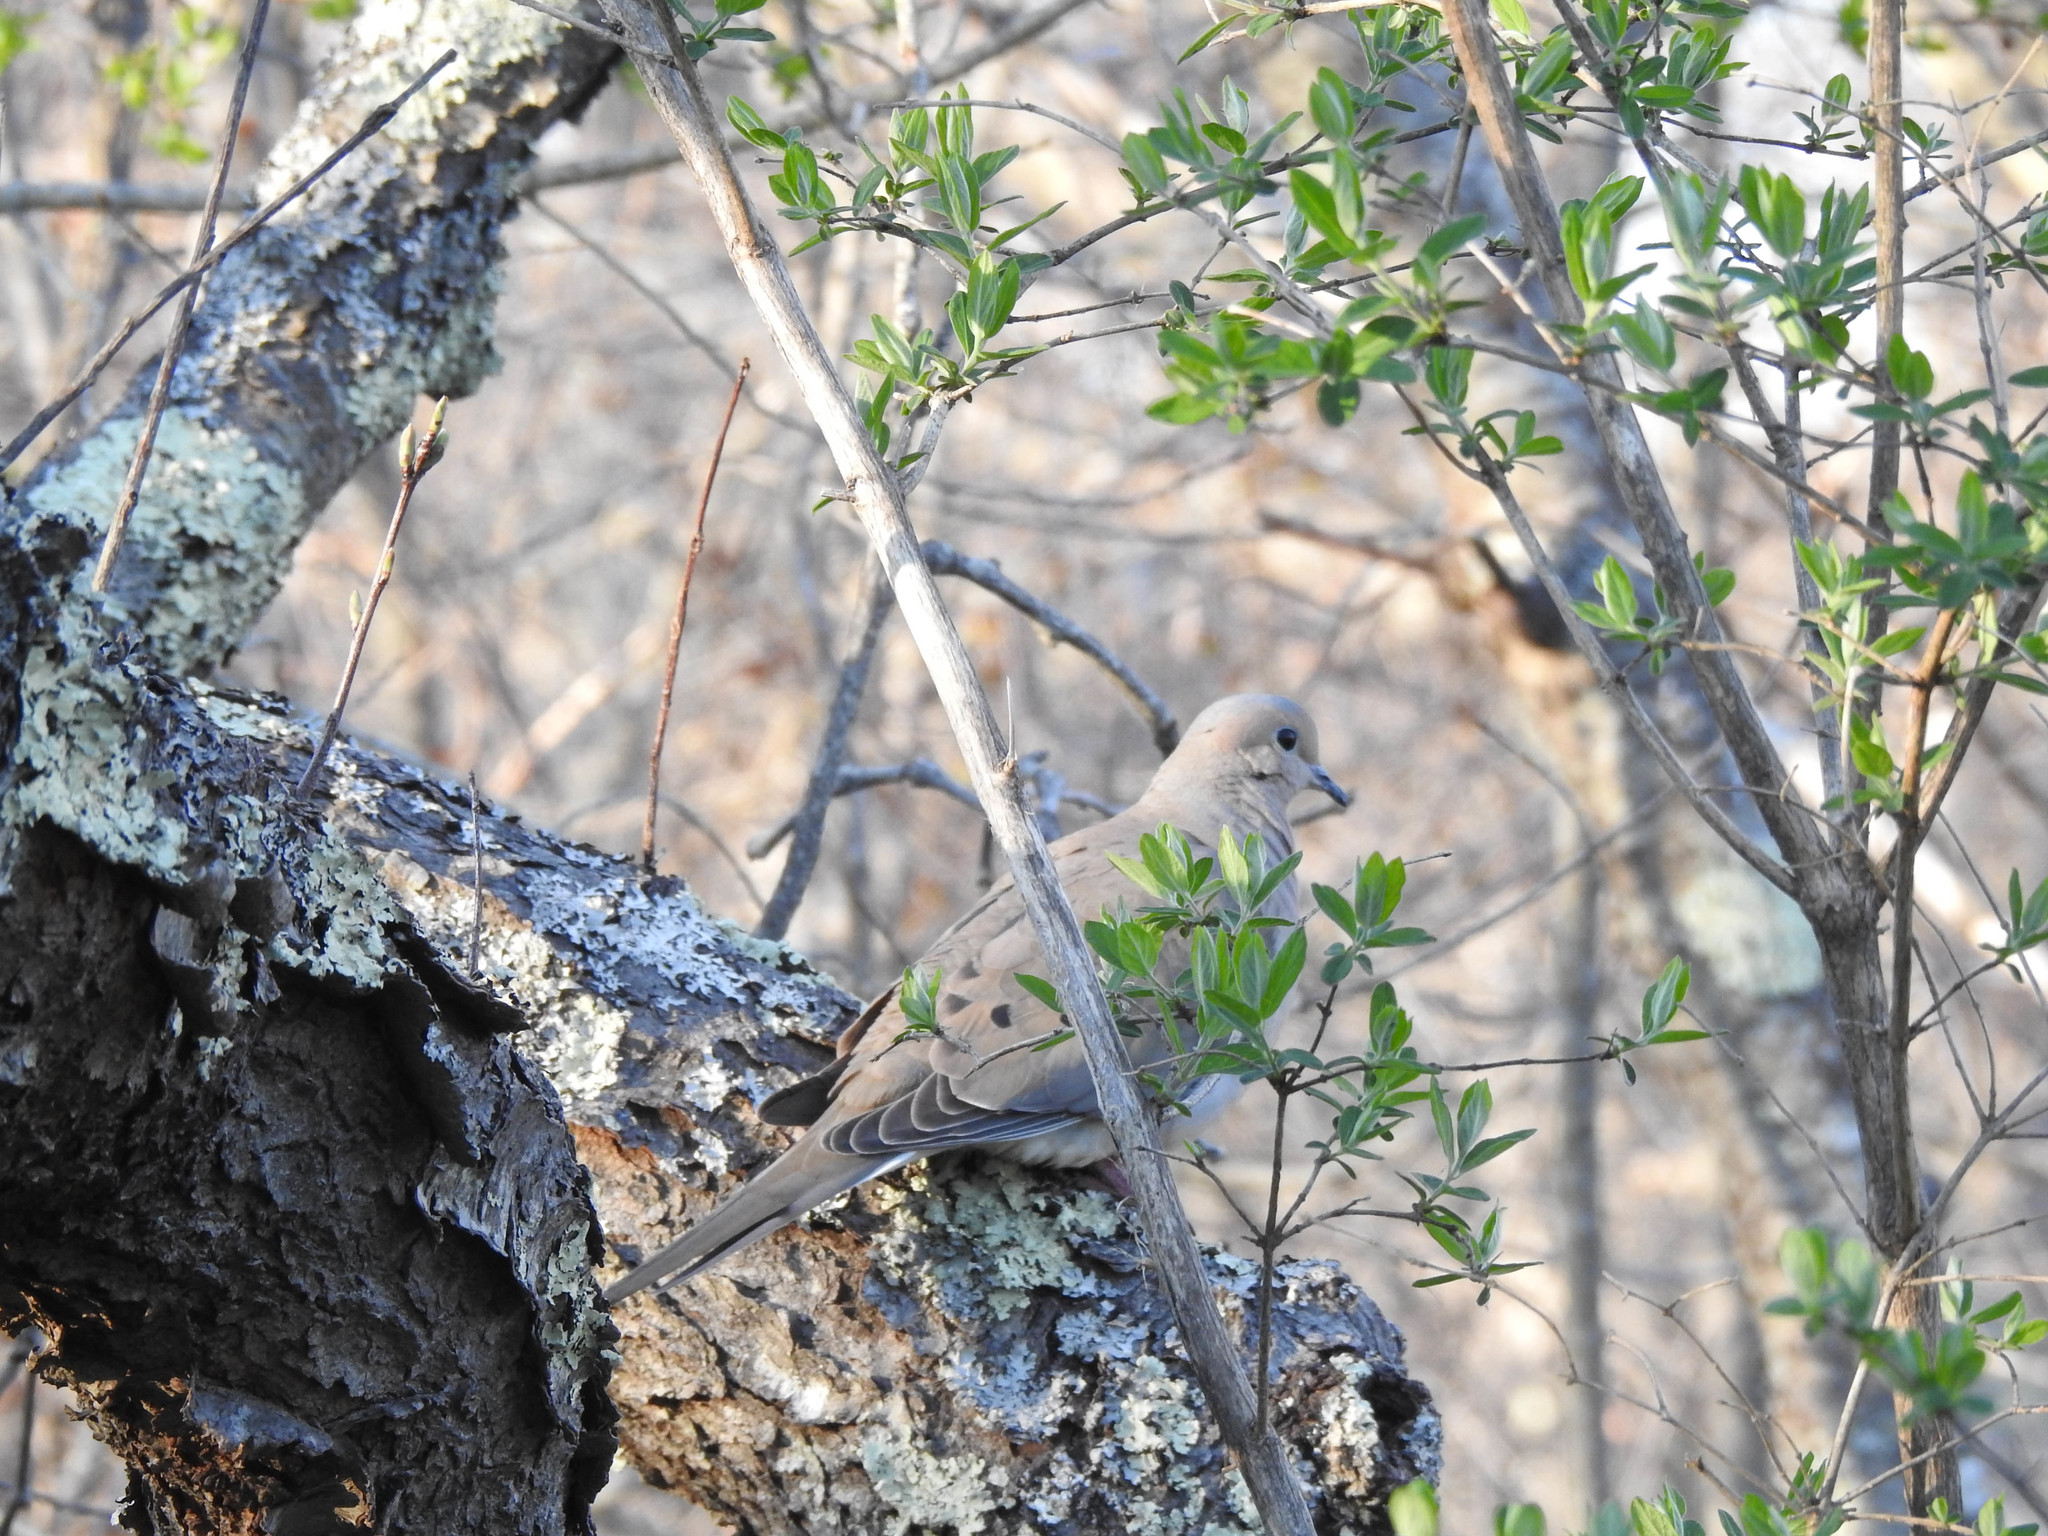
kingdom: Animalia
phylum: Chordata
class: Aves
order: Columbiformes
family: Columbidae
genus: Zenaida
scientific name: Zenaida macroura
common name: Mourning dove
